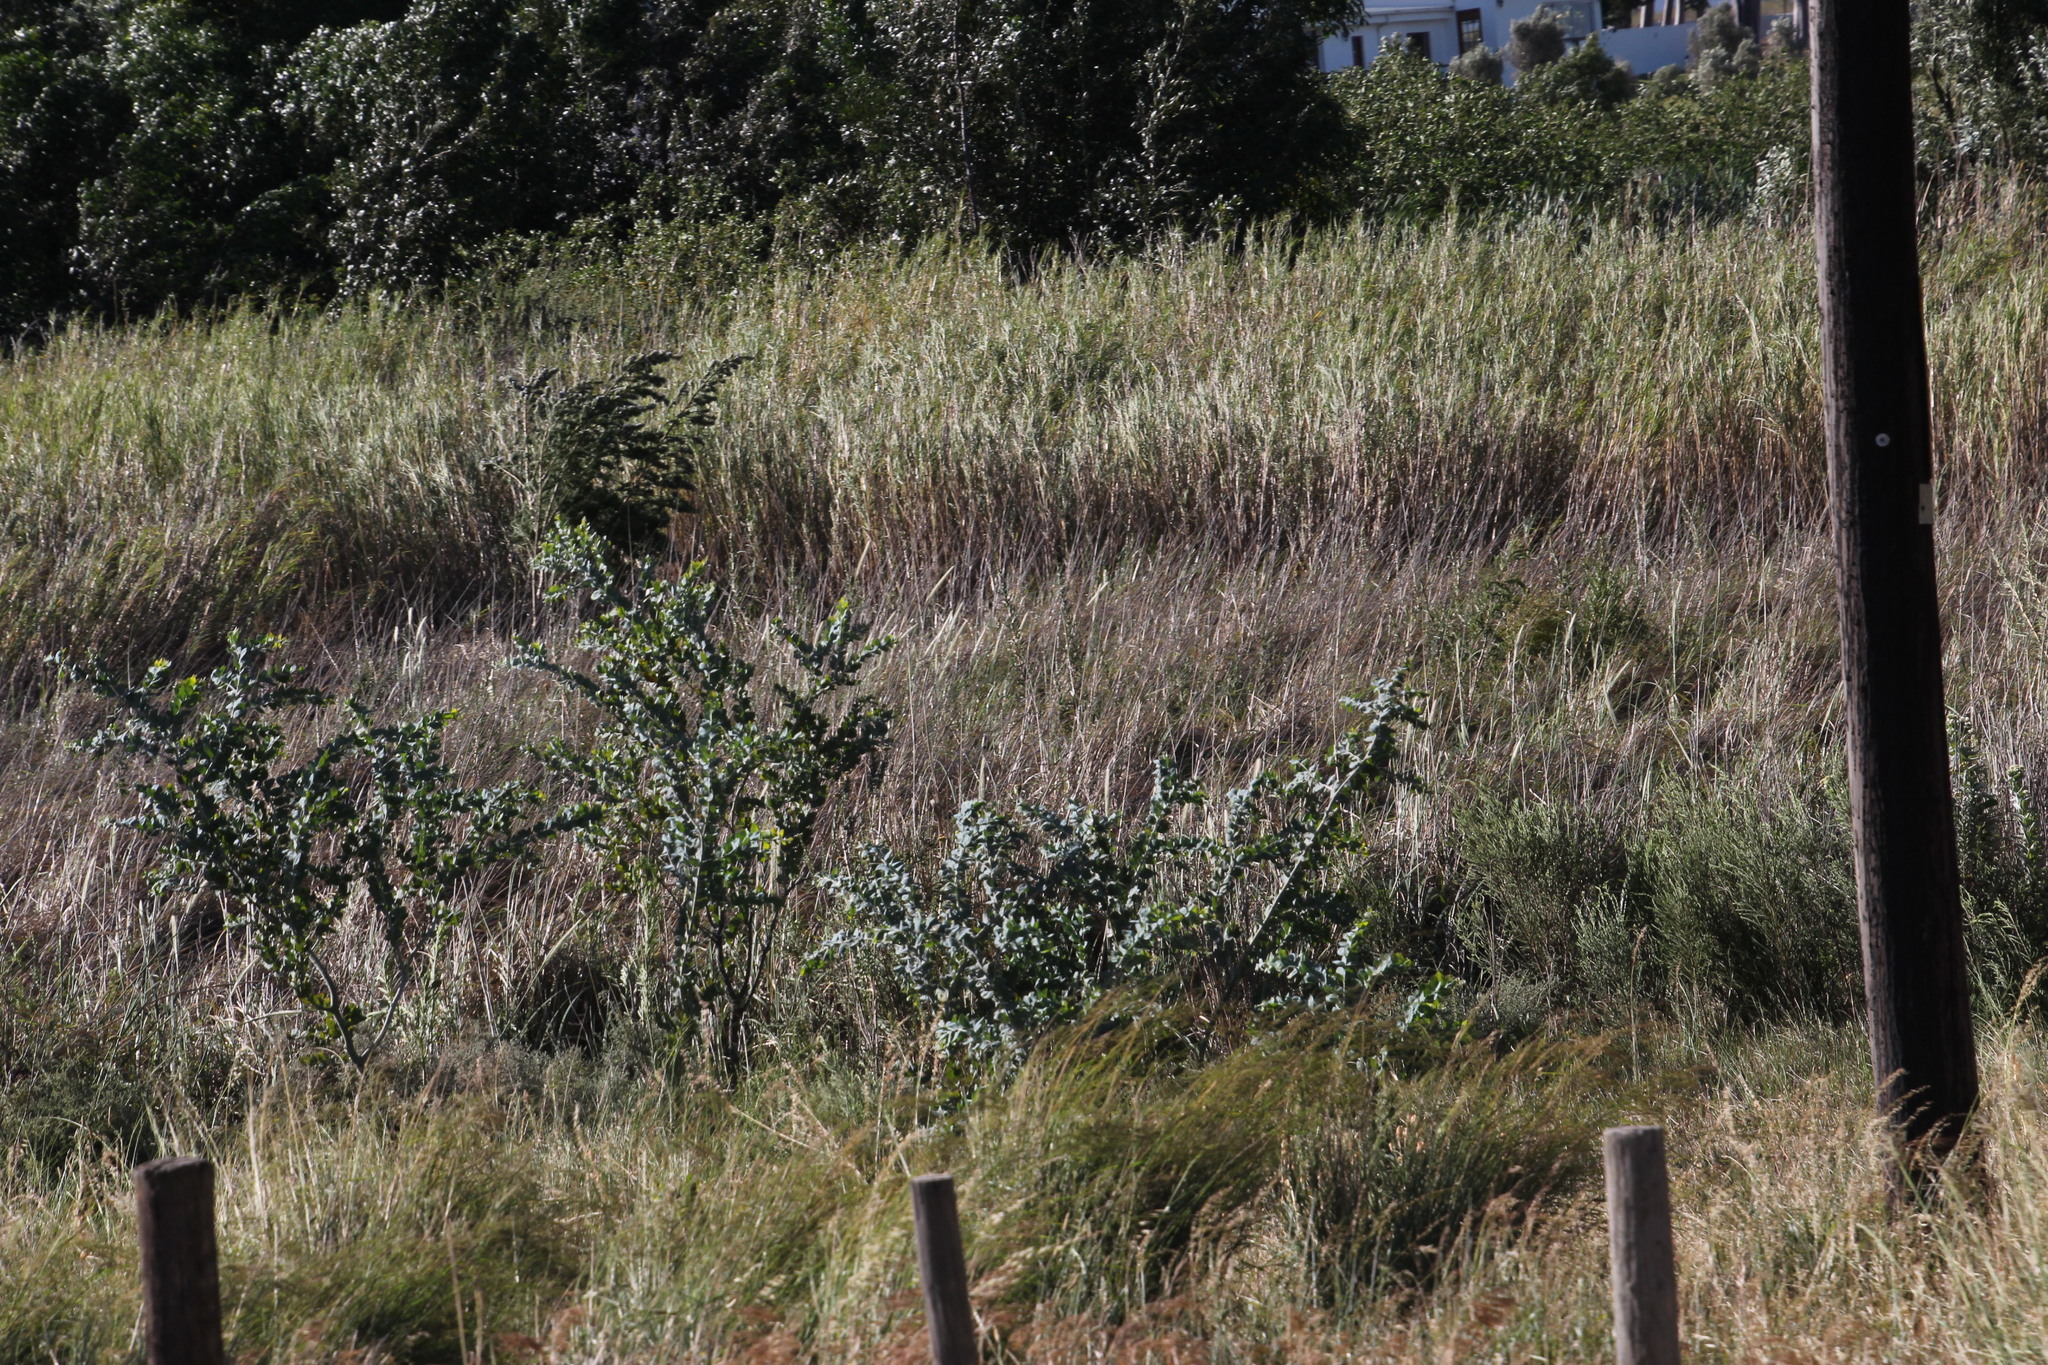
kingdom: Plantae
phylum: Tracheophyta
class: Magnoliopsida
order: Fabales
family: Fabaceae
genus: Acacia
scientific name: Acacia podalyriifolia
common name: Pearl wattle
